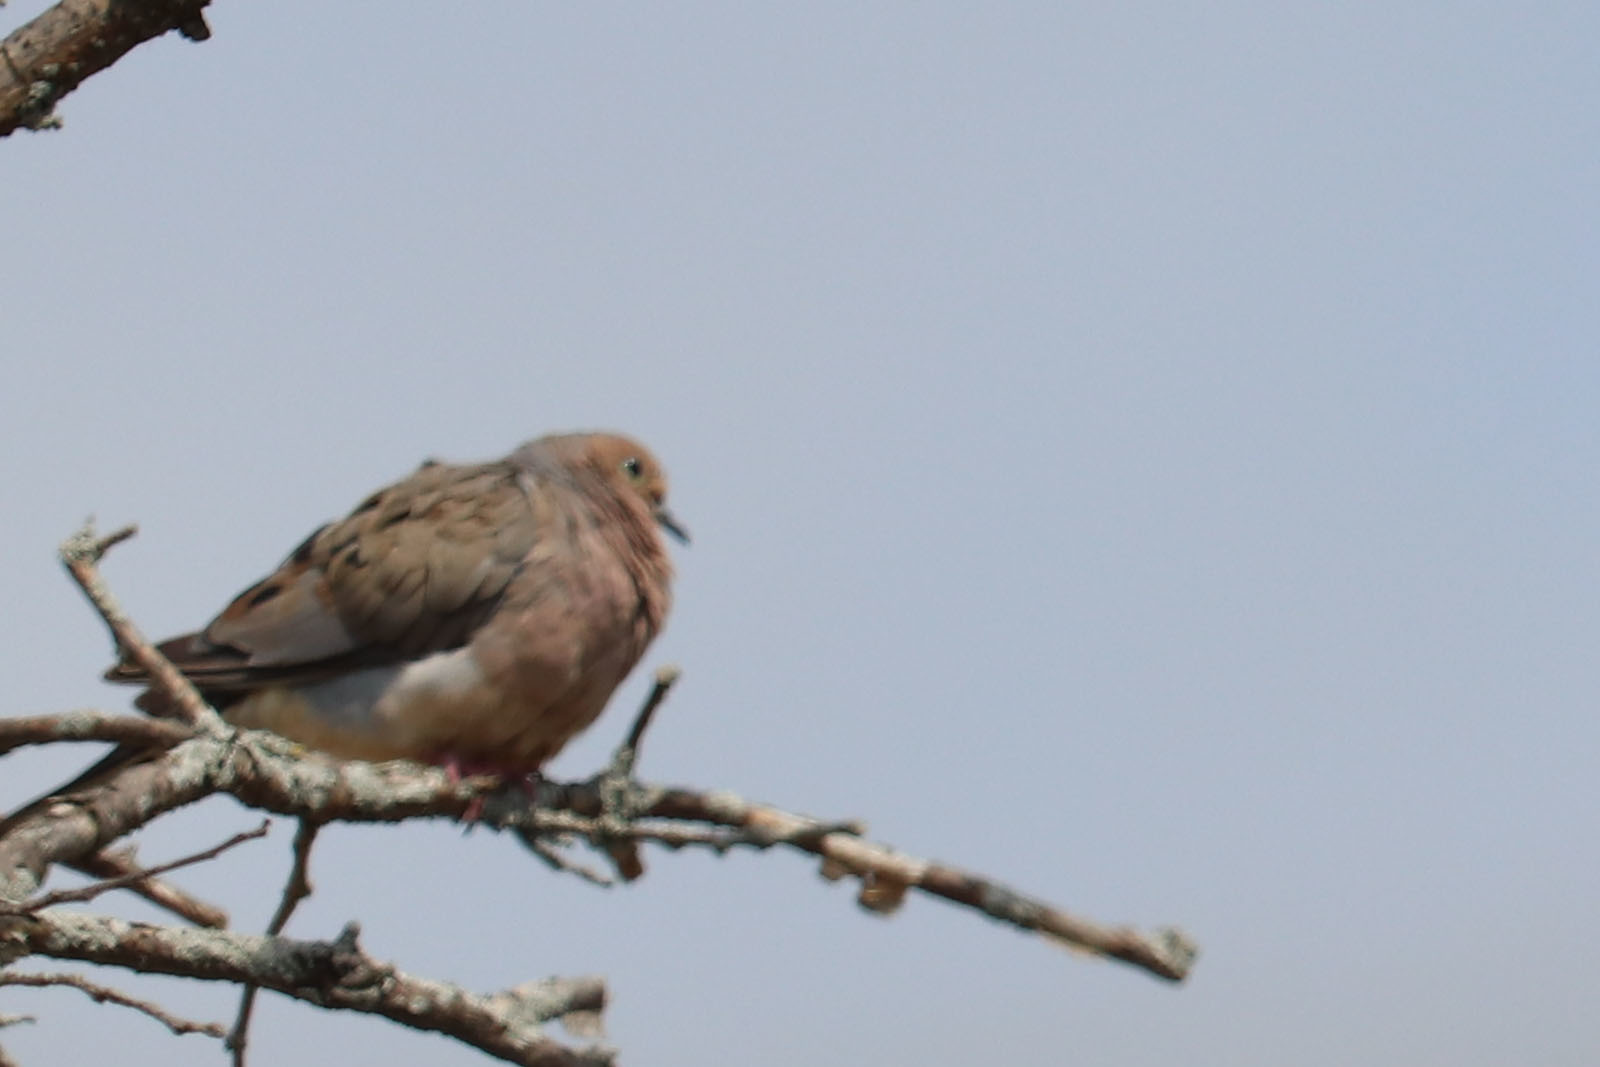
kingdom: Animalia
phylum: Chordata
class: Aves
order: Columbiformes
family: Columbidae
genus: Zenaida
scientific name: Zenaida macroura
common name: Mourning dove
